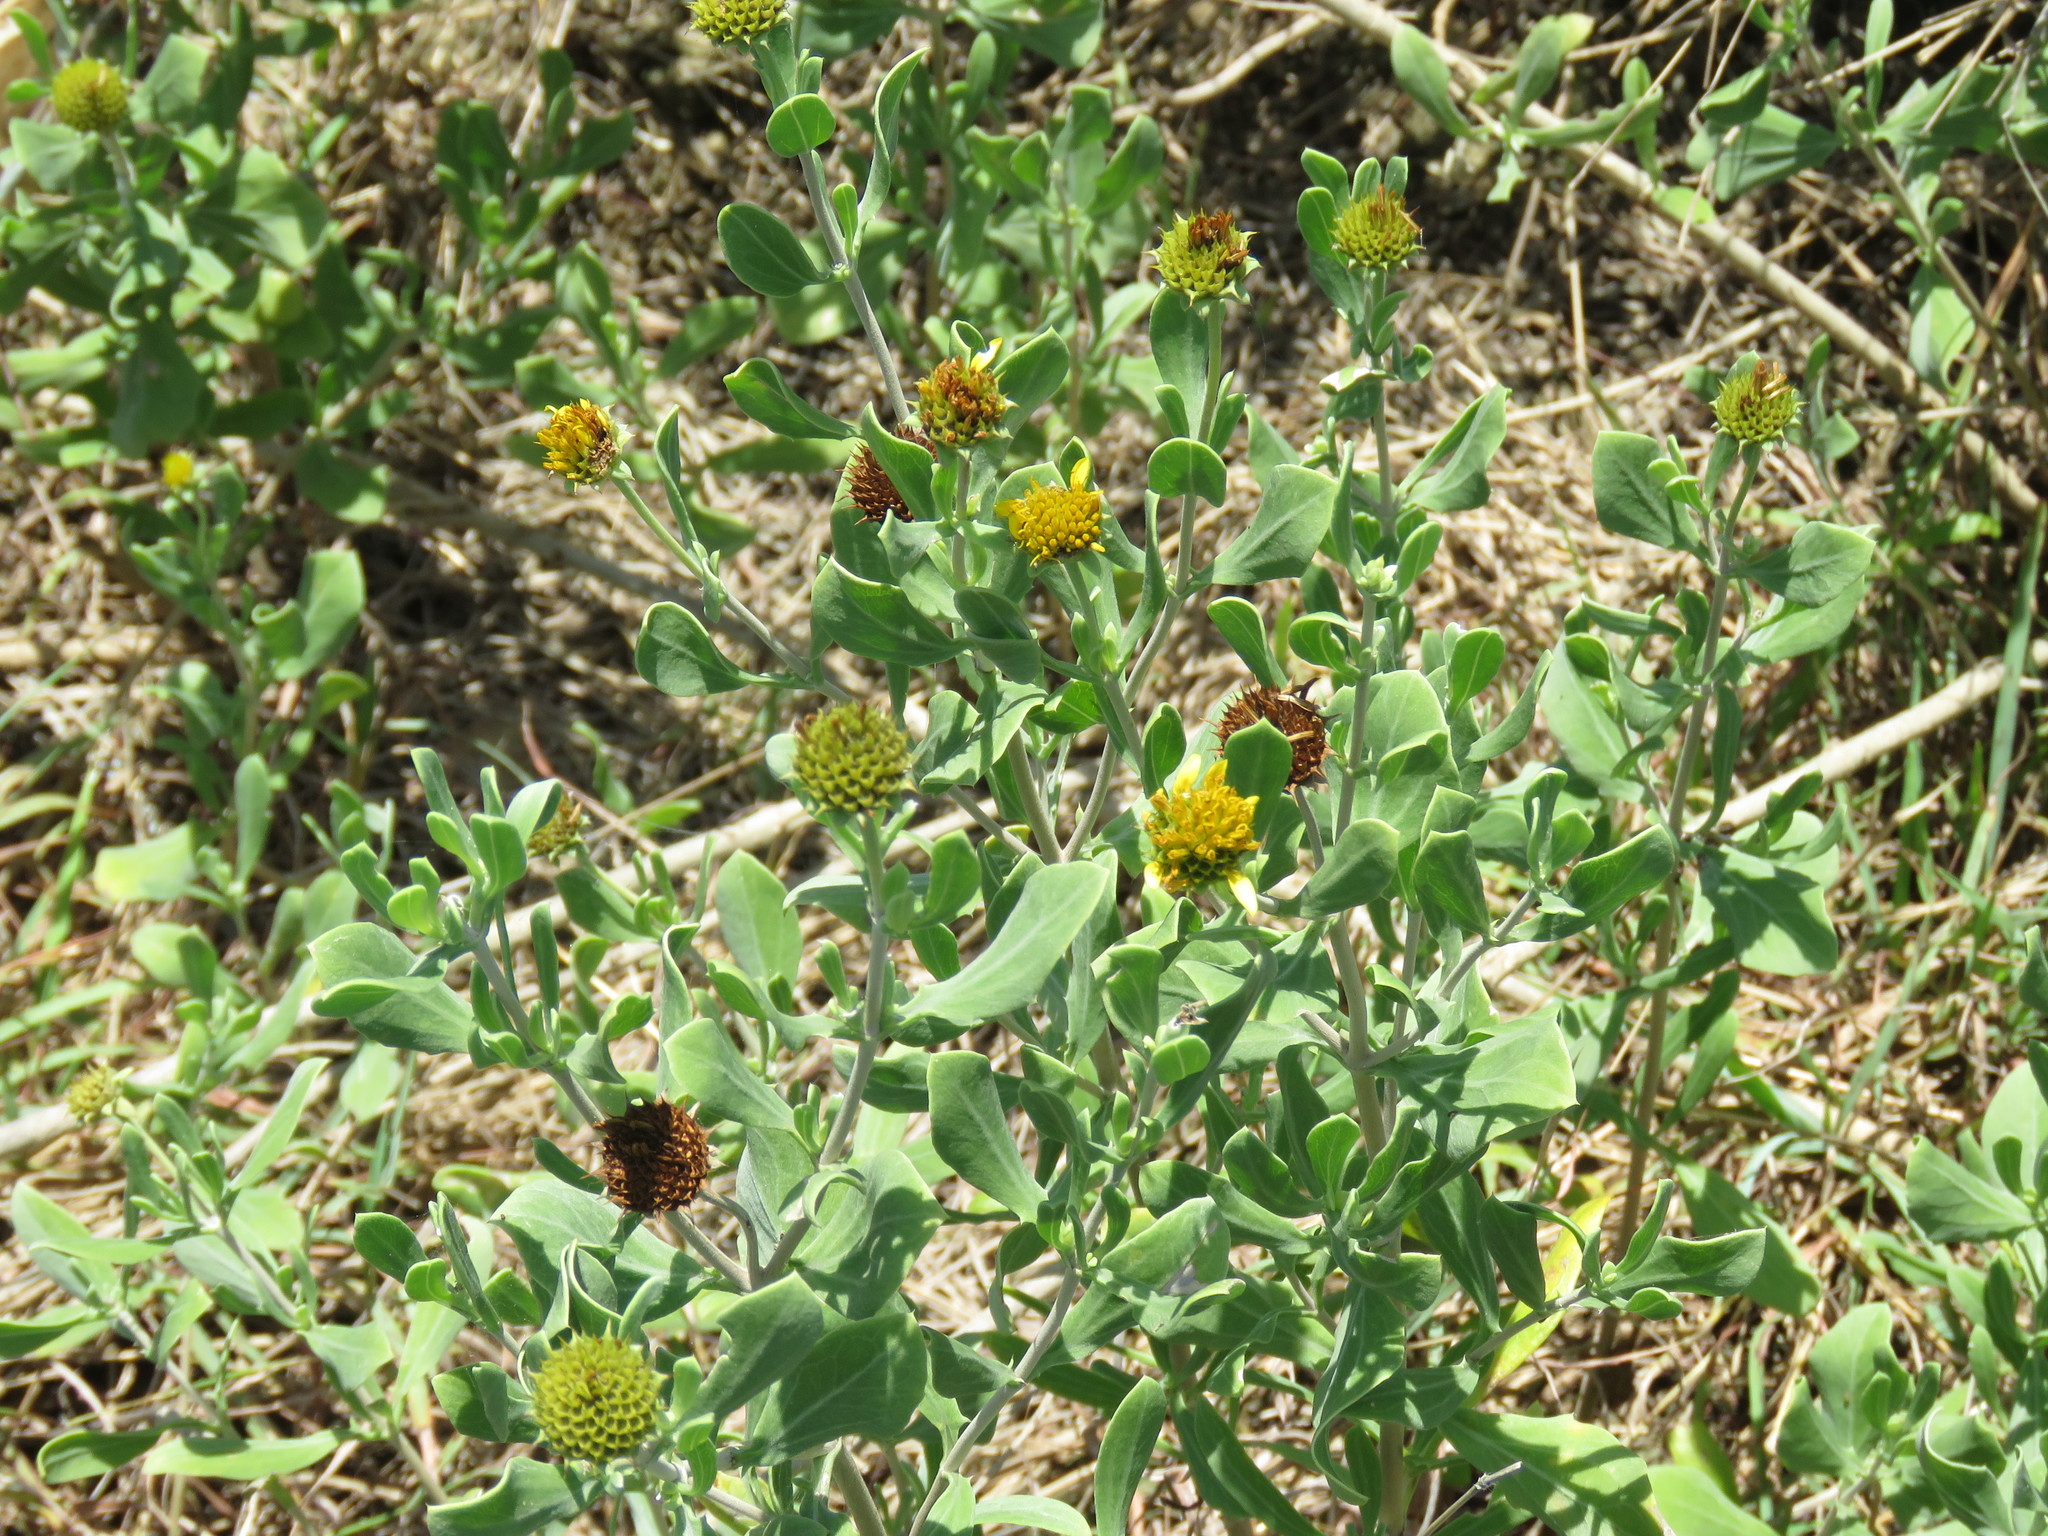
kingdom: Plantae
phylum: Tracheophyta
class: Magnoliopsida
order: Asterales
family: Asteraceae
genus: Borrichia
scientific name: Borrichia frutescens
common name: Sea oxeye
